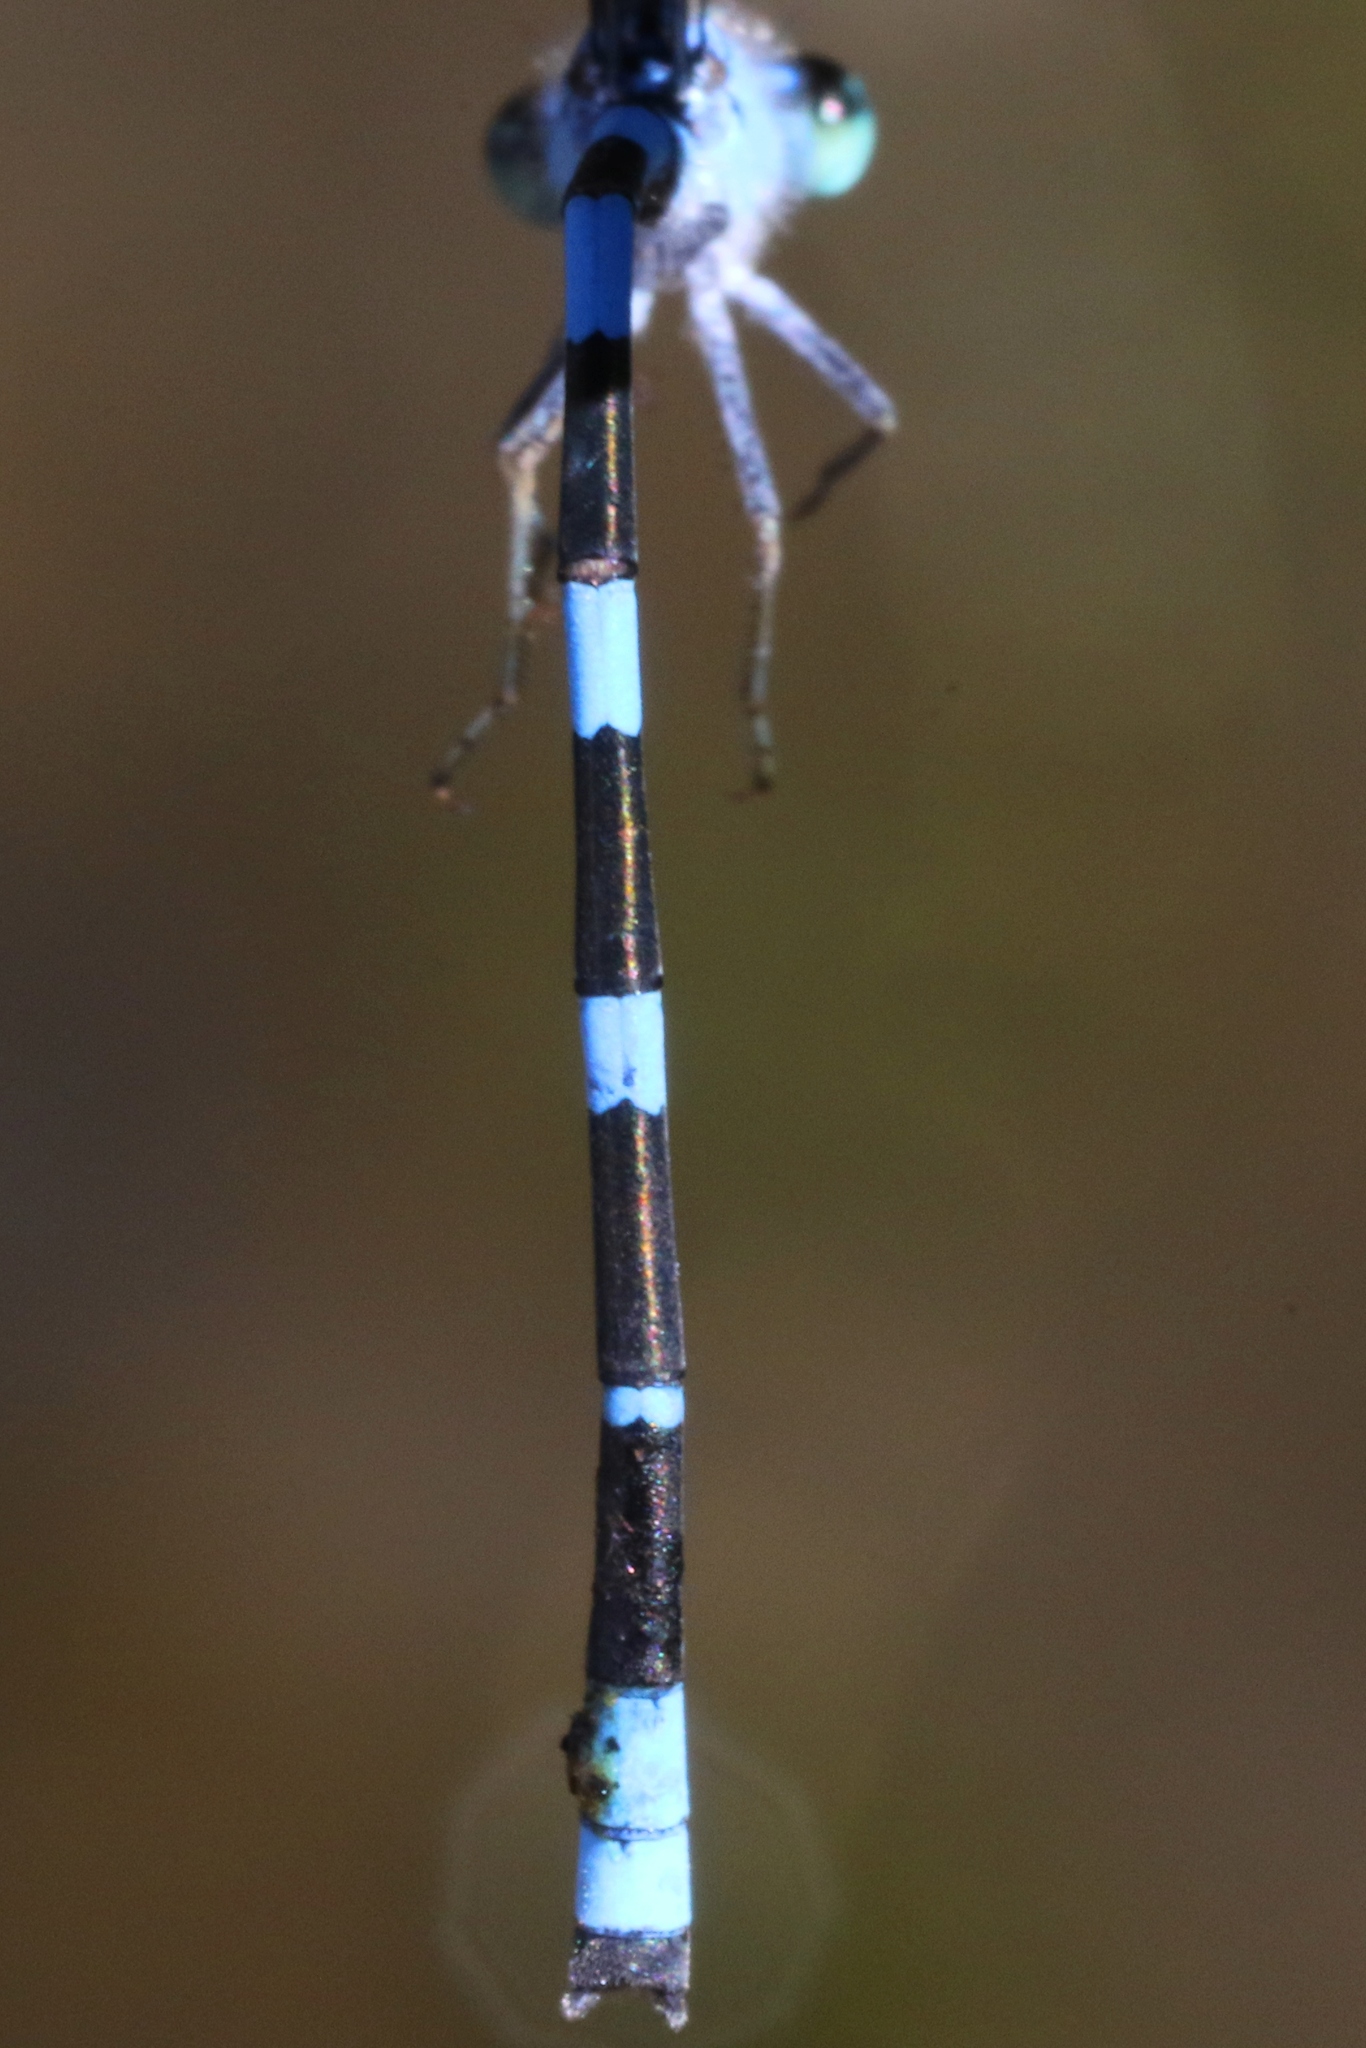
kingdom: Animalia
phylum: Arthropoda
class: Insecta
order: Odonata
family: Coenagrionidae
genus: Enallagma
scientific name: Enallagma carunculatum
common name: Tule bluet
